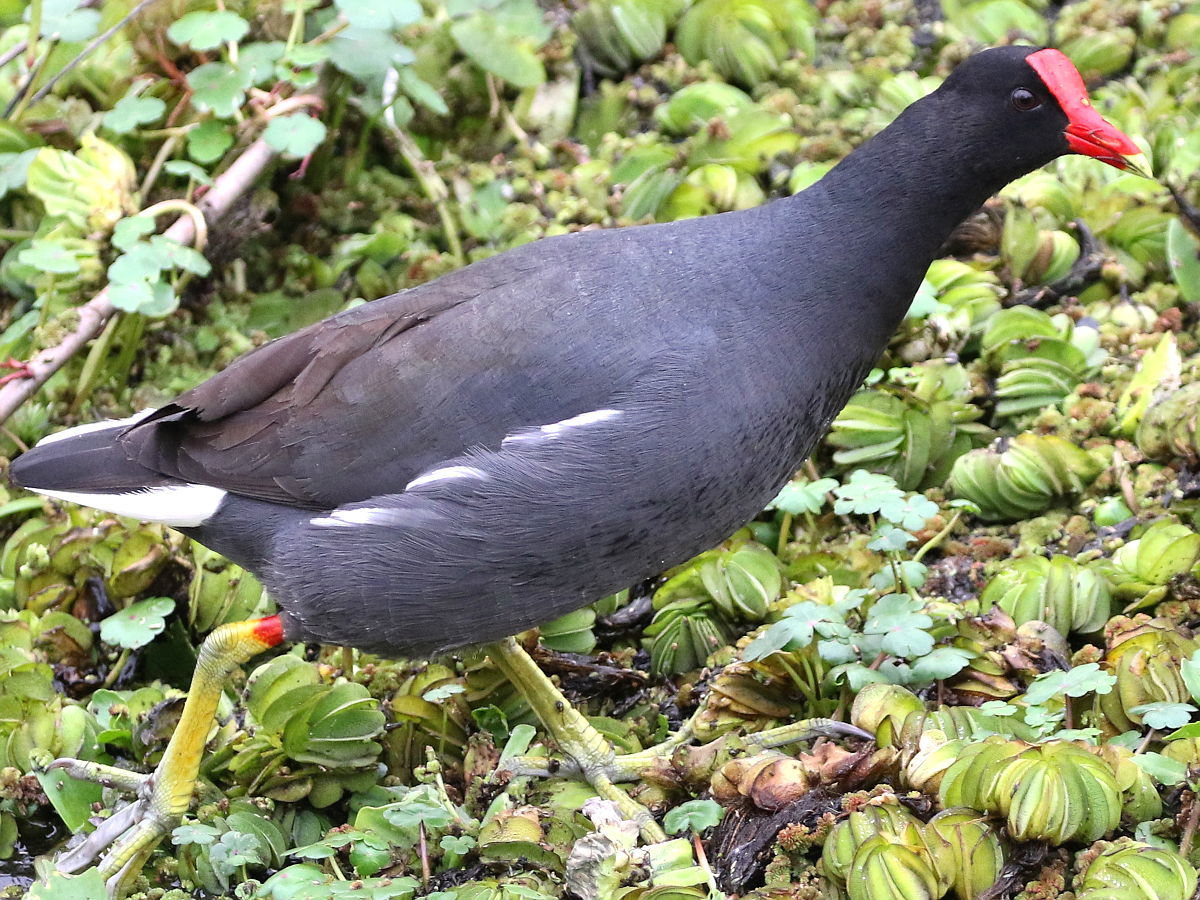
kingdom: Animalia
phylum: Chordata
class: Aves
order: Gruiformes
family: Rallidae
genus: Gallinula
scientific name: Gallinula chloropus
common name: Common moorhen
